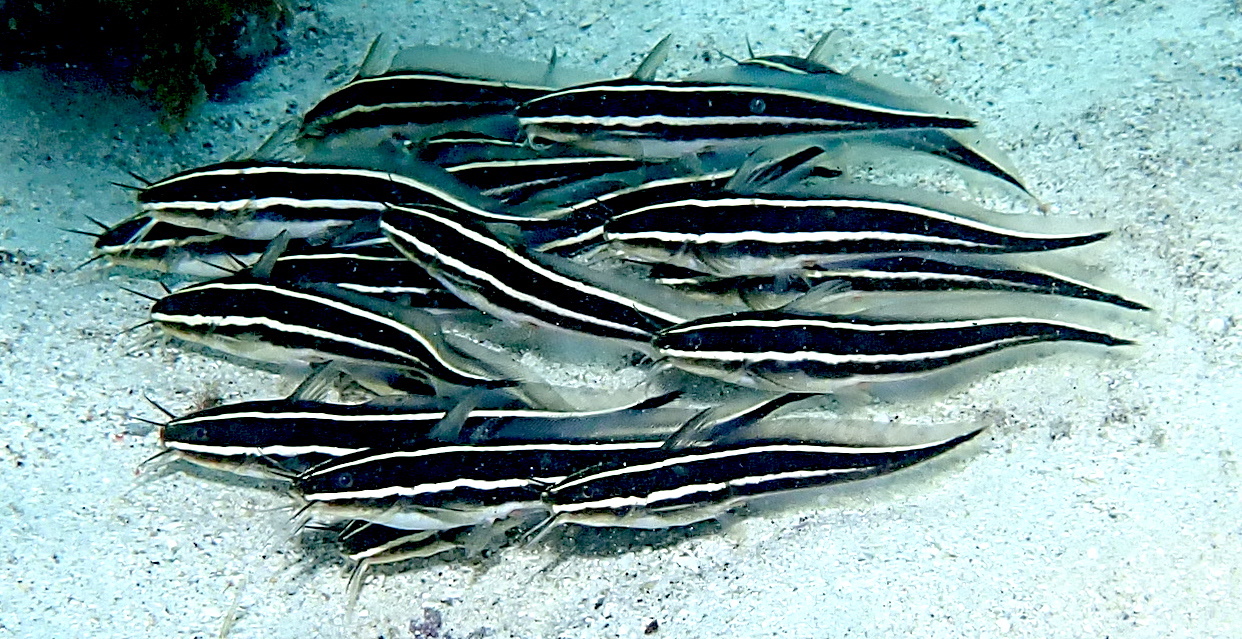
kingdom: Animalia
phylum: Chordata
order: Siluriformes
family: Plotosidae
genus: Plotosus
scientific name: Plotosus lineatus
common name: Striped eel catfish
